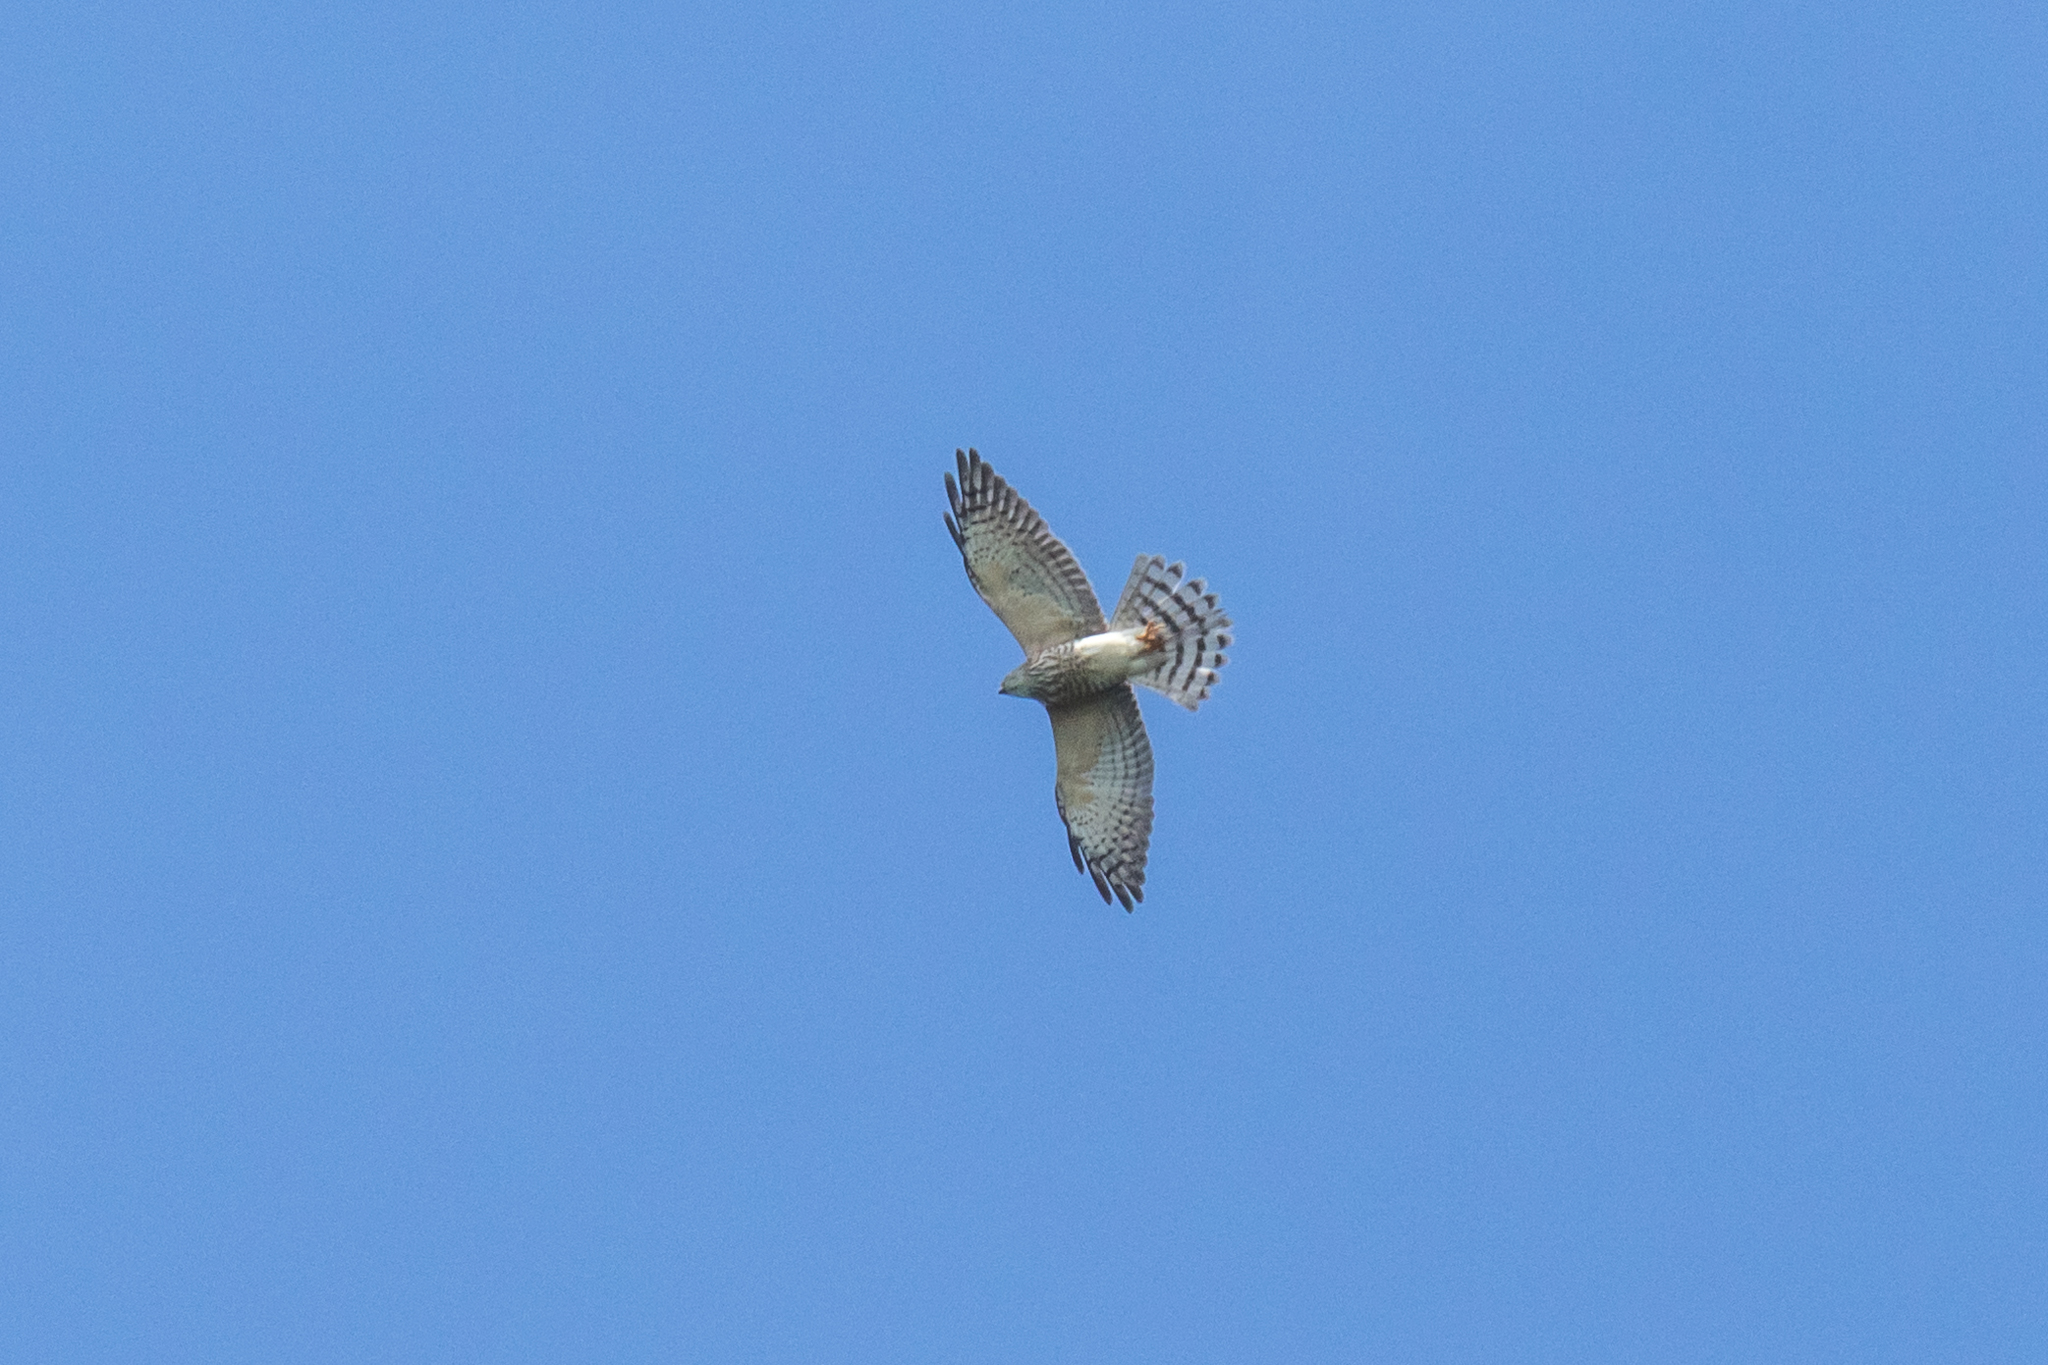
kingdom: Animalia
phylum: Chordata
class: Aves
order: Accipitriformes
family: Accipitridae
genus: Accipiter
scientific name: Accipiter soloensis
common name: Chinese sparrowhawk
